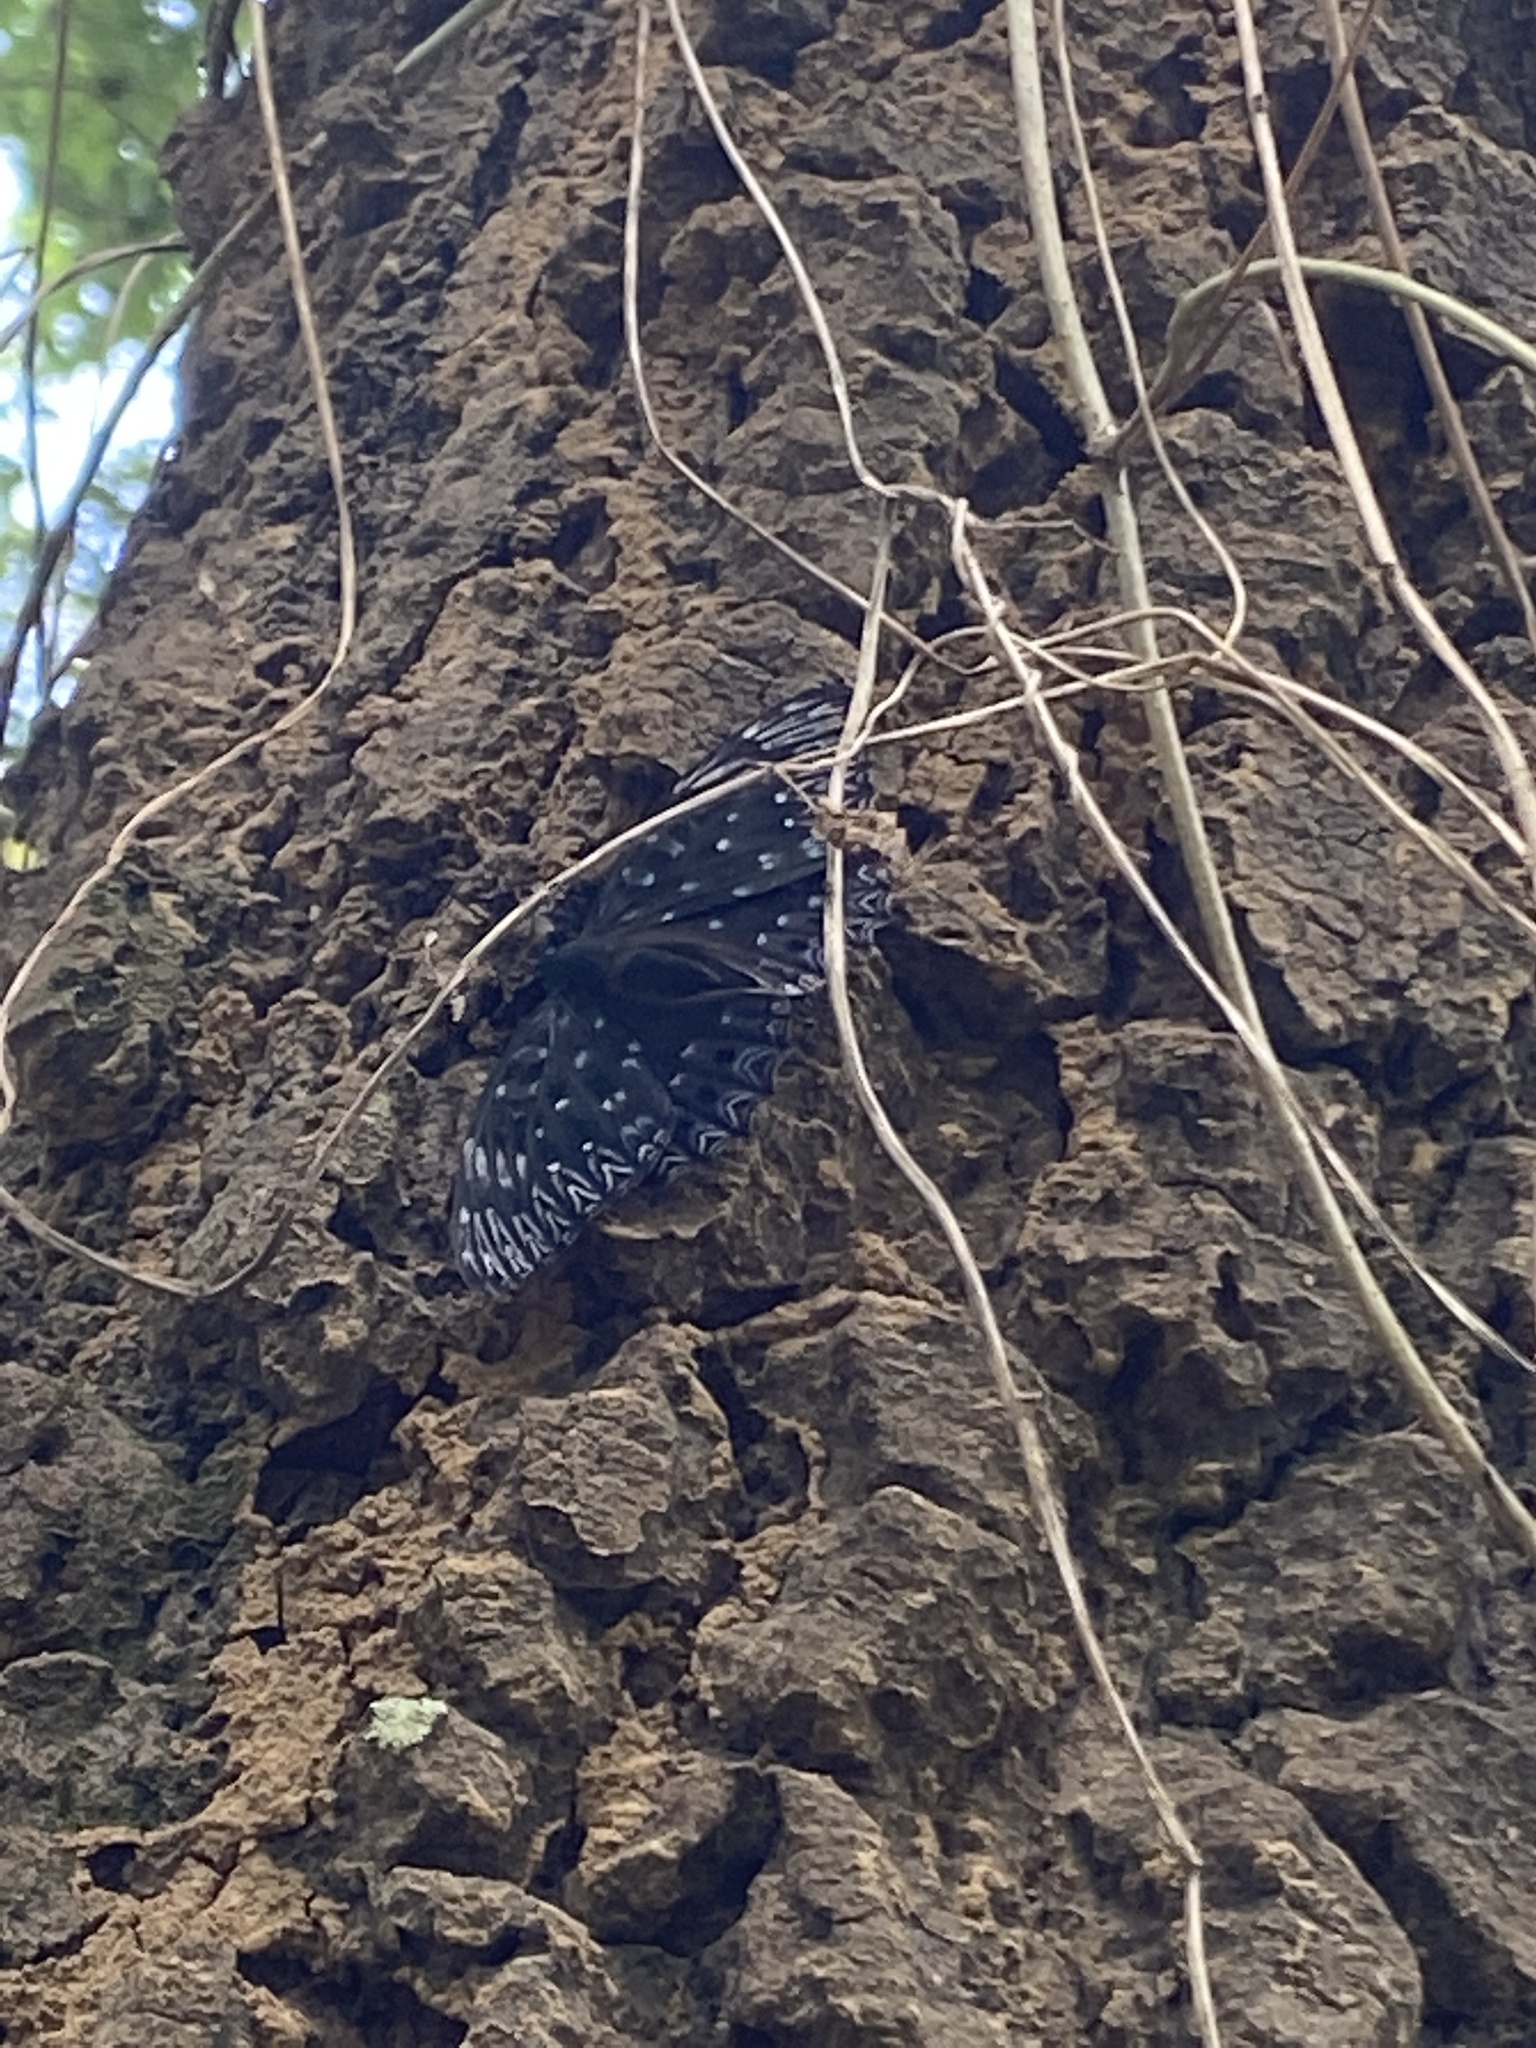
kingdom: Animalia
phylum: Arthropoda
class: Insecta
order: Lepidoptera
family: Nymphalidae
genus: Dichorragia
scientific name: Dichorragia nesimachus
